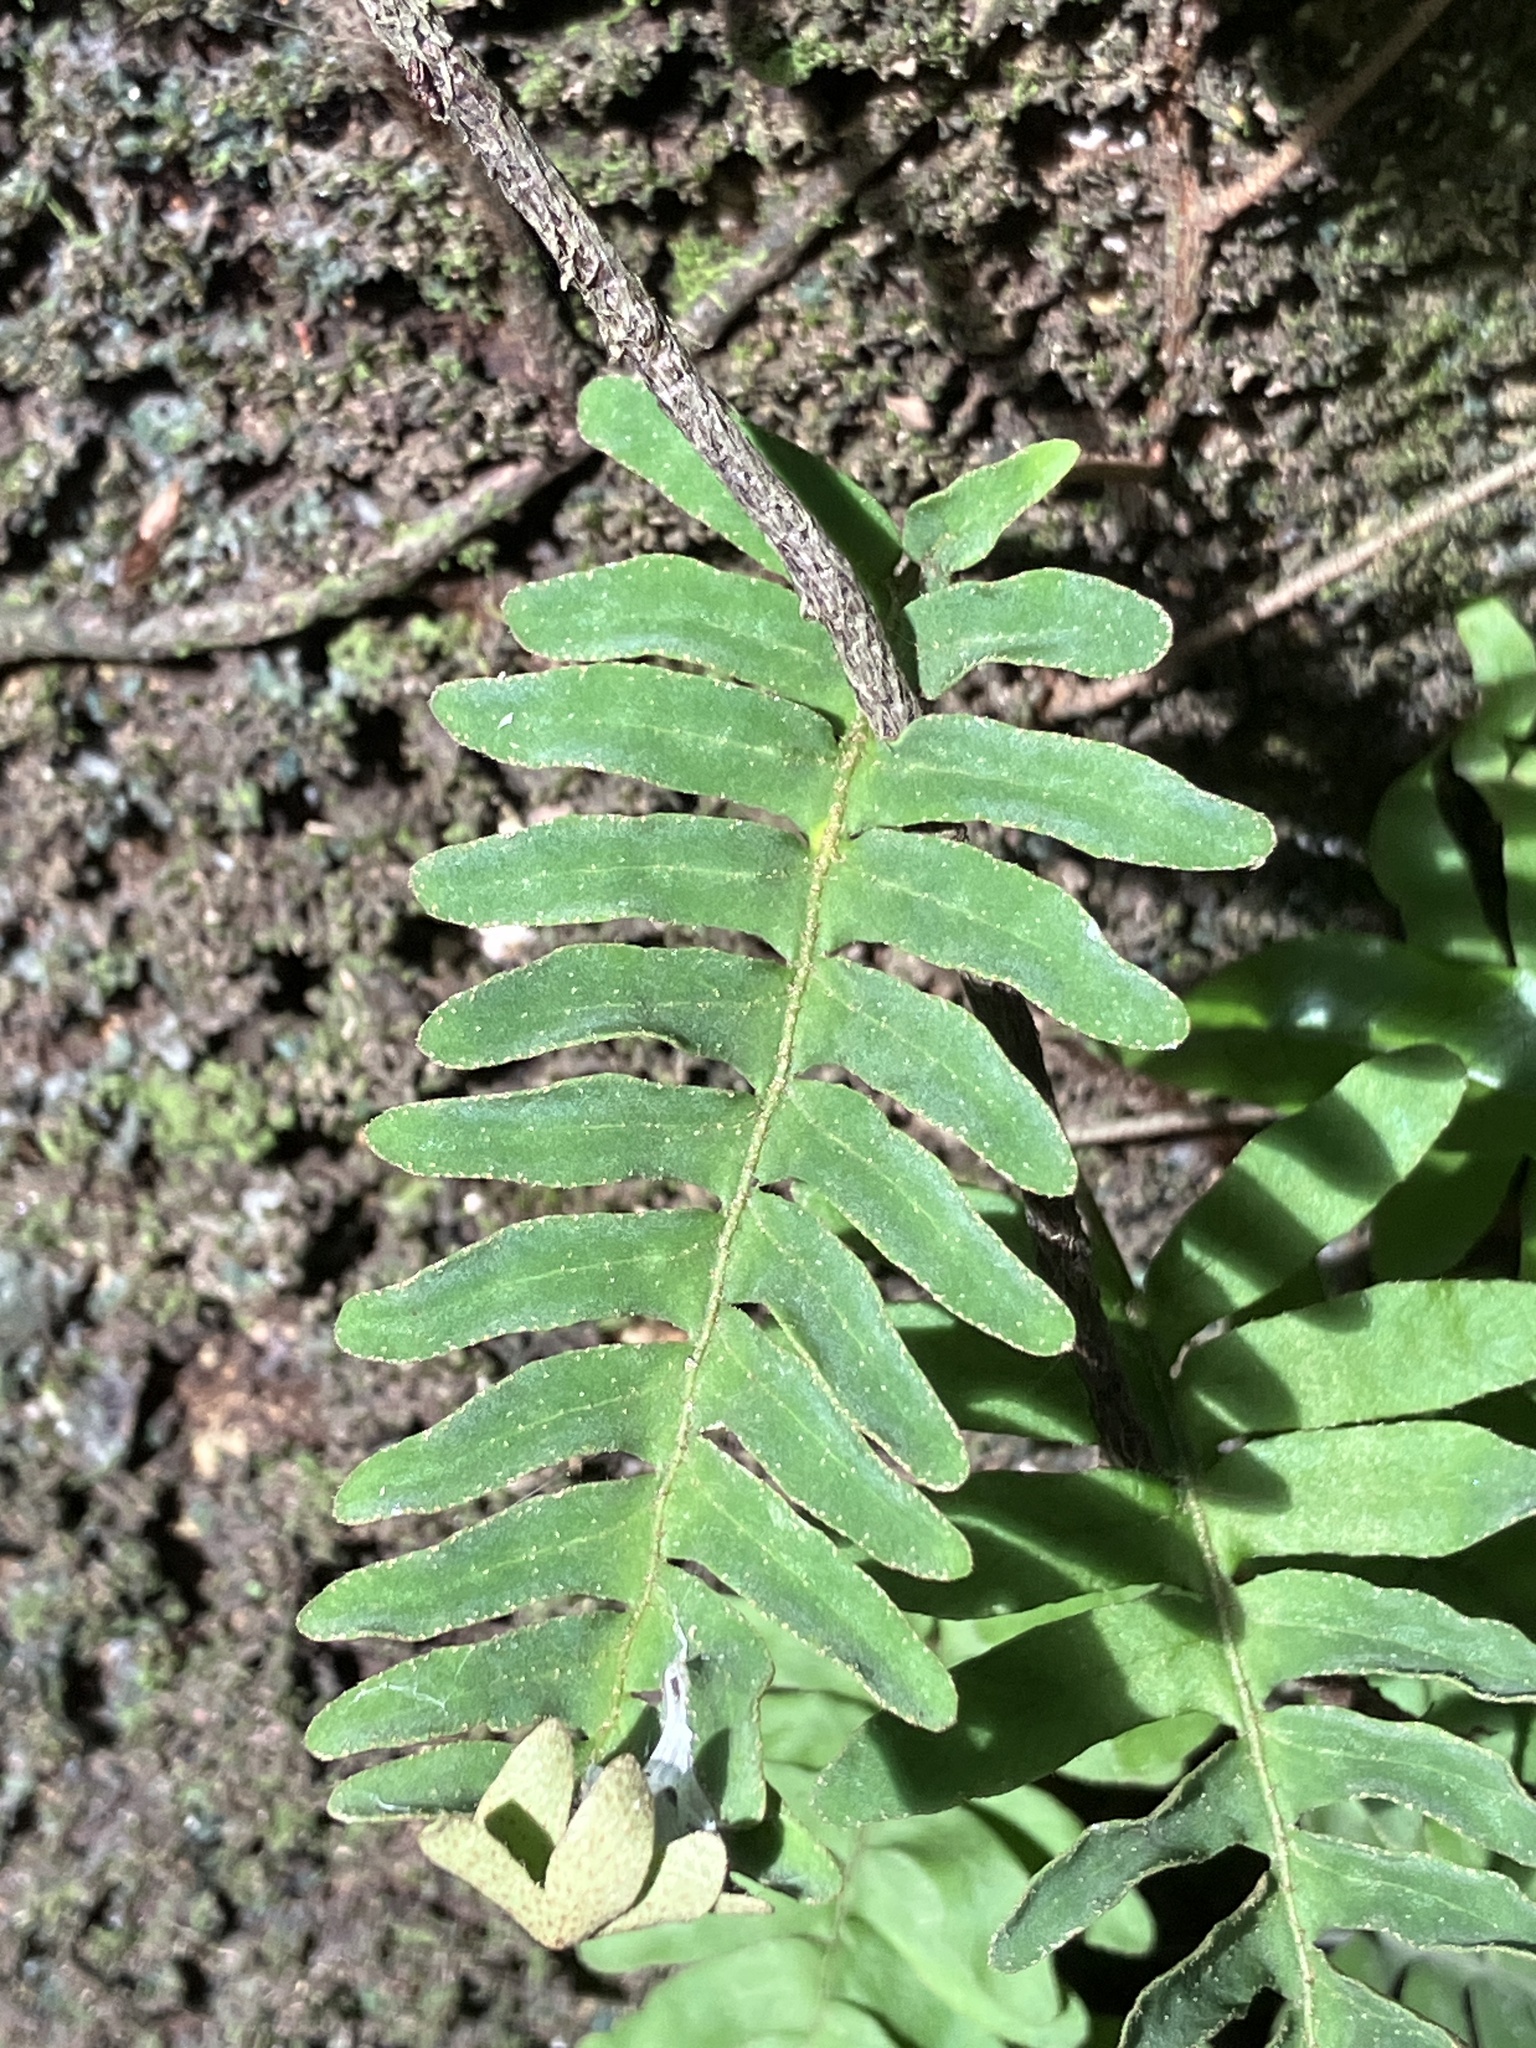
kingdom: Plantae
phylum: Tracheophyta
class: Polypodiopsida
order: Polypodiales
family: Polypodiaceae
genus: Pleopeltis
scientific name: Pleopeltis polypodioides
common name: Resurrection fern
